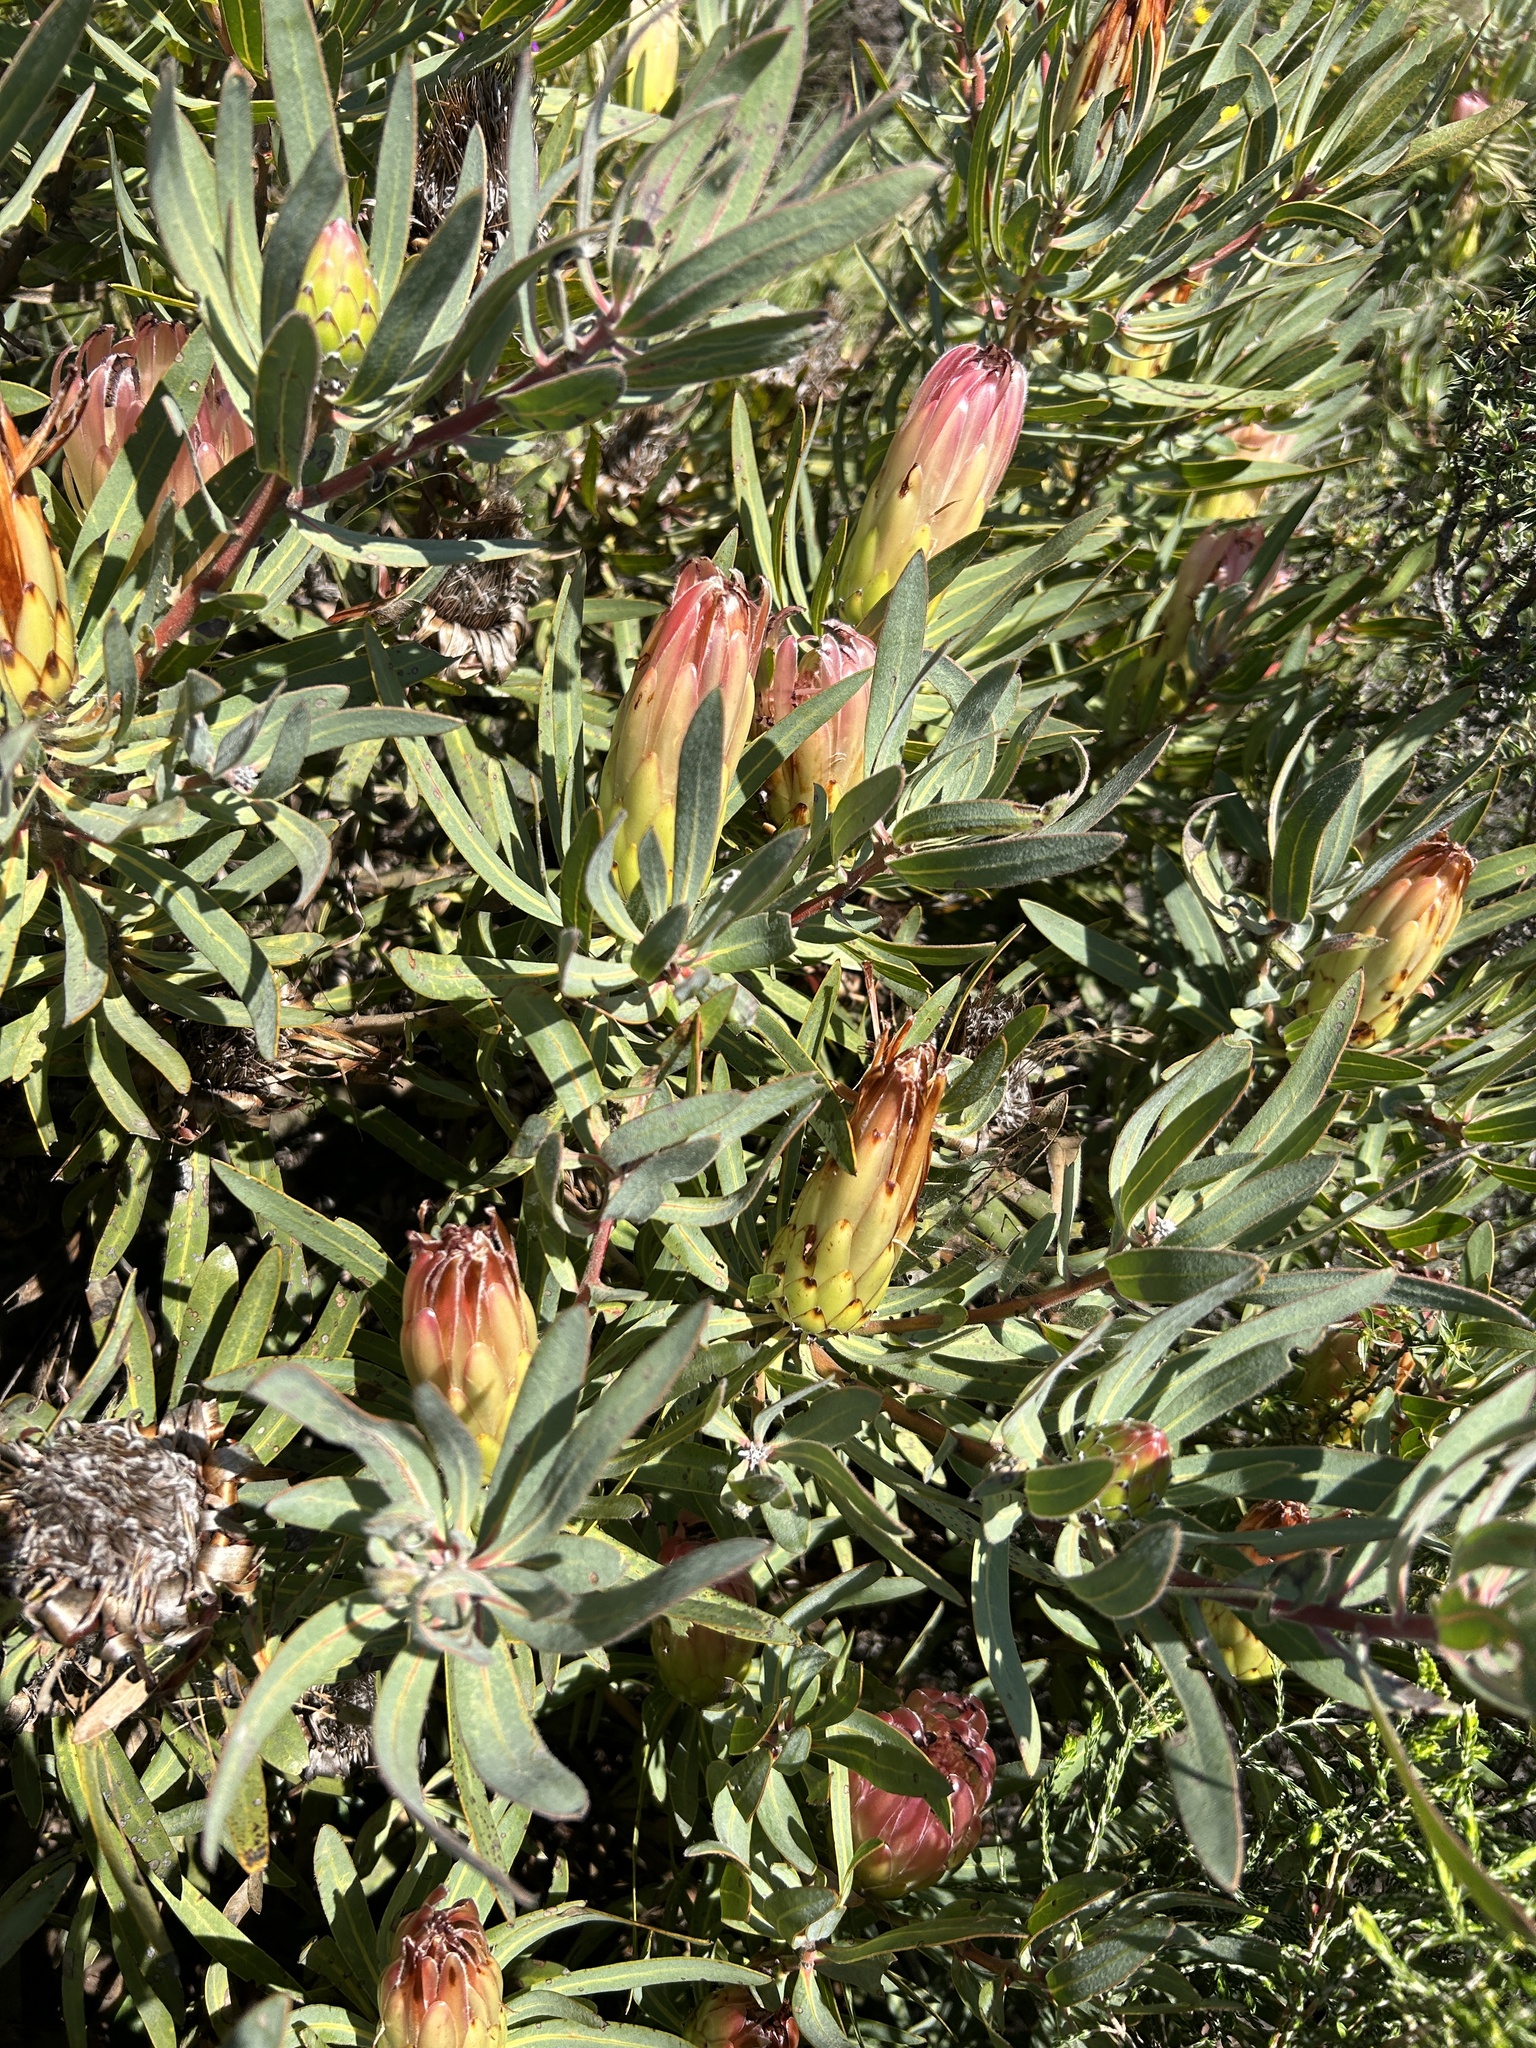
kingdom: Plantae
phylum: Tracheophyta
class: Magnoliopsida
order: Proteales
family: Proteaceae
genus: Protea
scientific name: Protea burchellii
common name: Burchell's sugarbush
